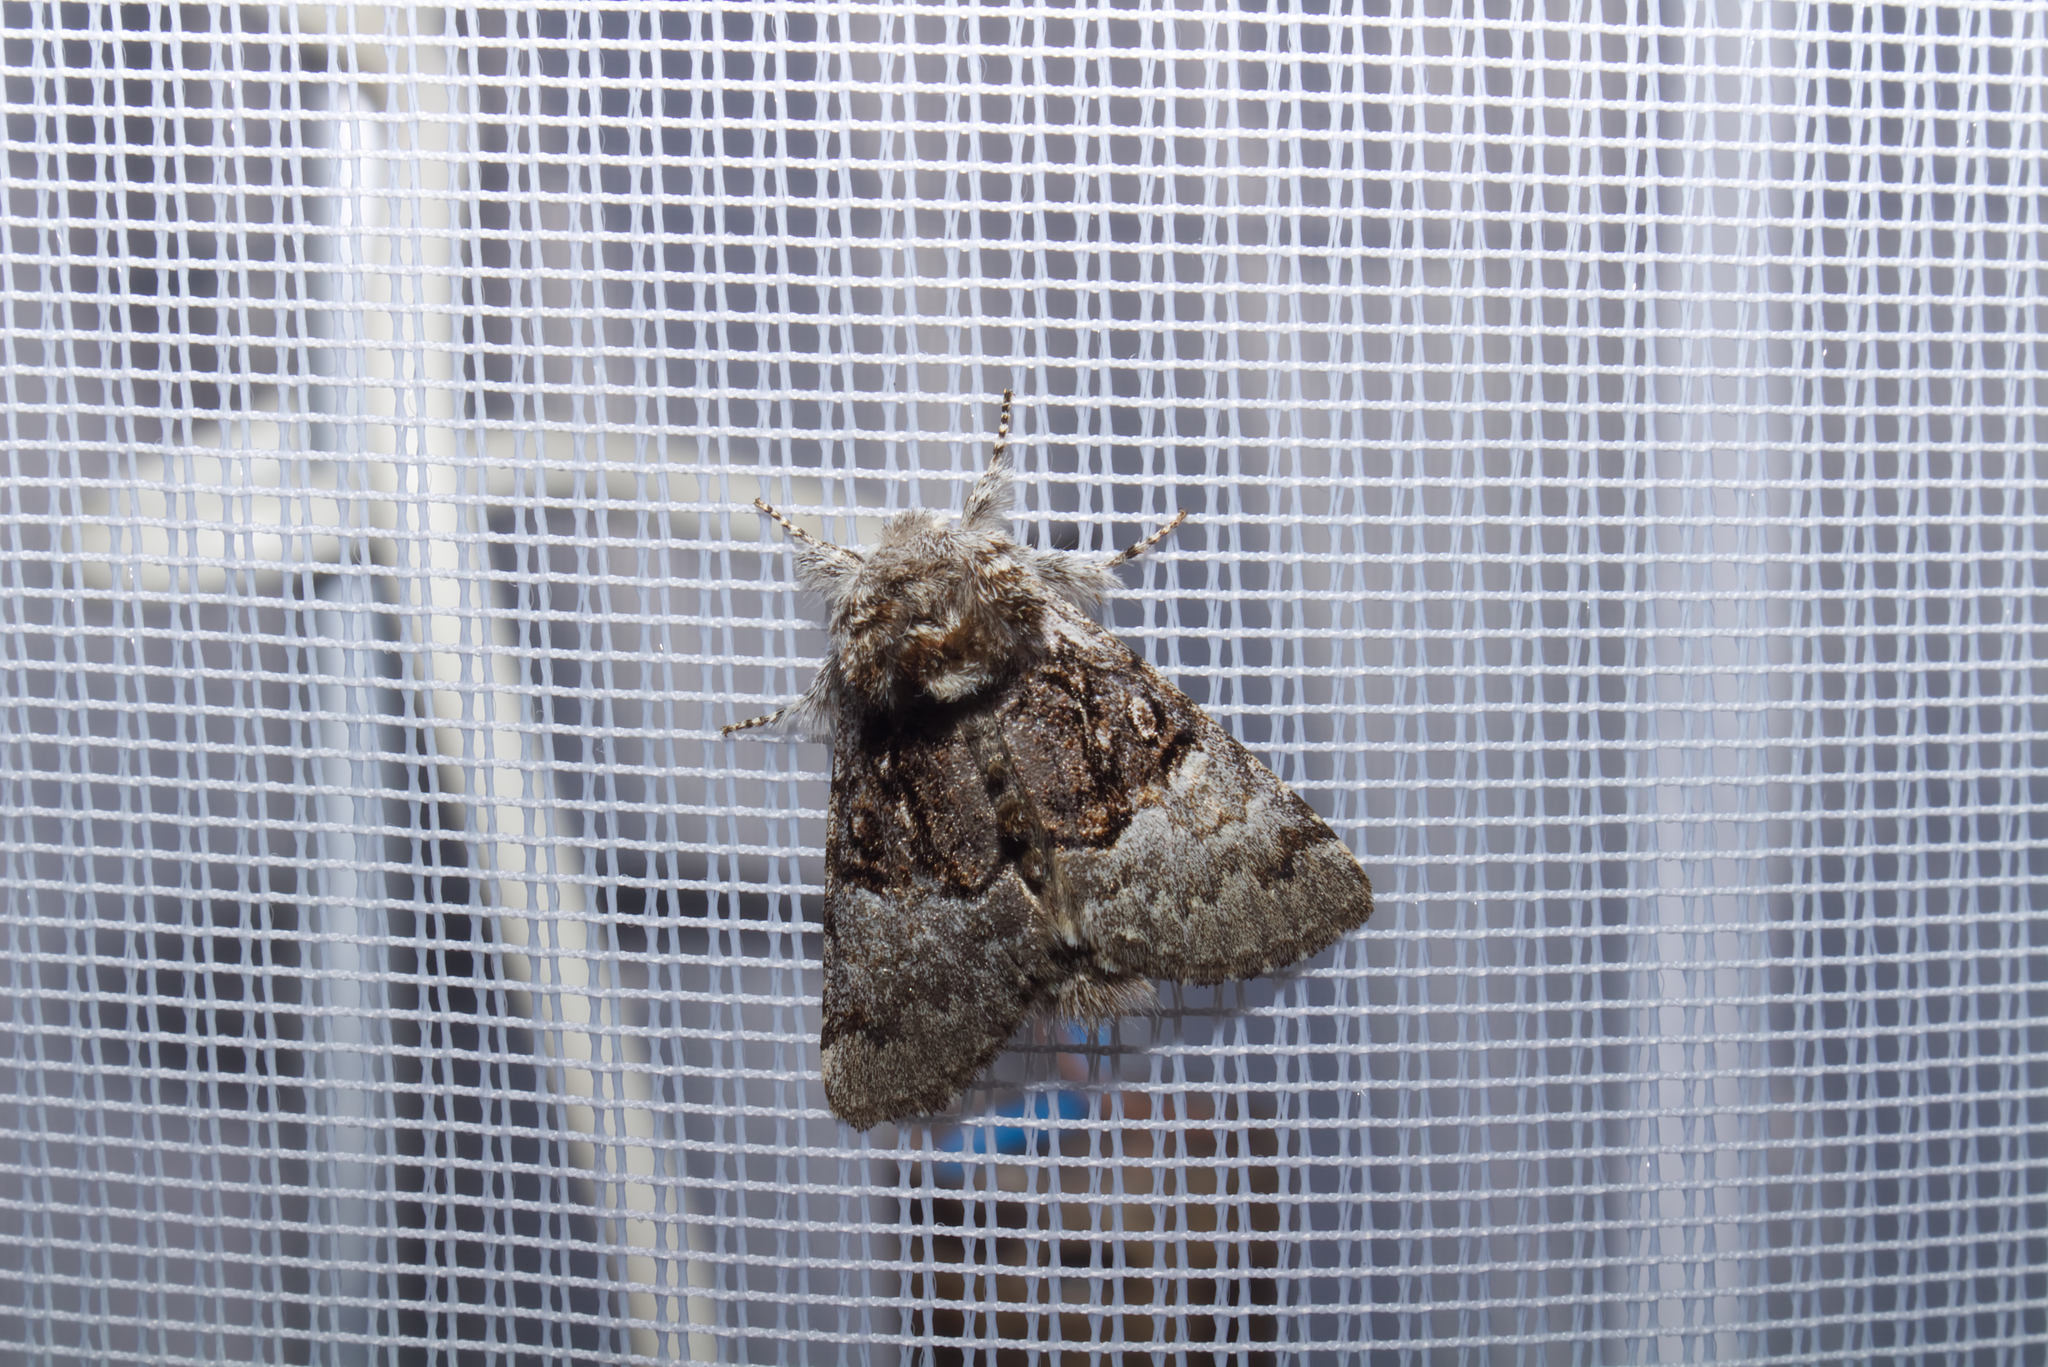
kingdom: Animalia
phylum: Arthropoda
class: Insecta
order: Lepidoptera
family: Noctuidae
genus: Colocasia
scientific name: Colocasia coryli
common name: Nut-tree tussock
